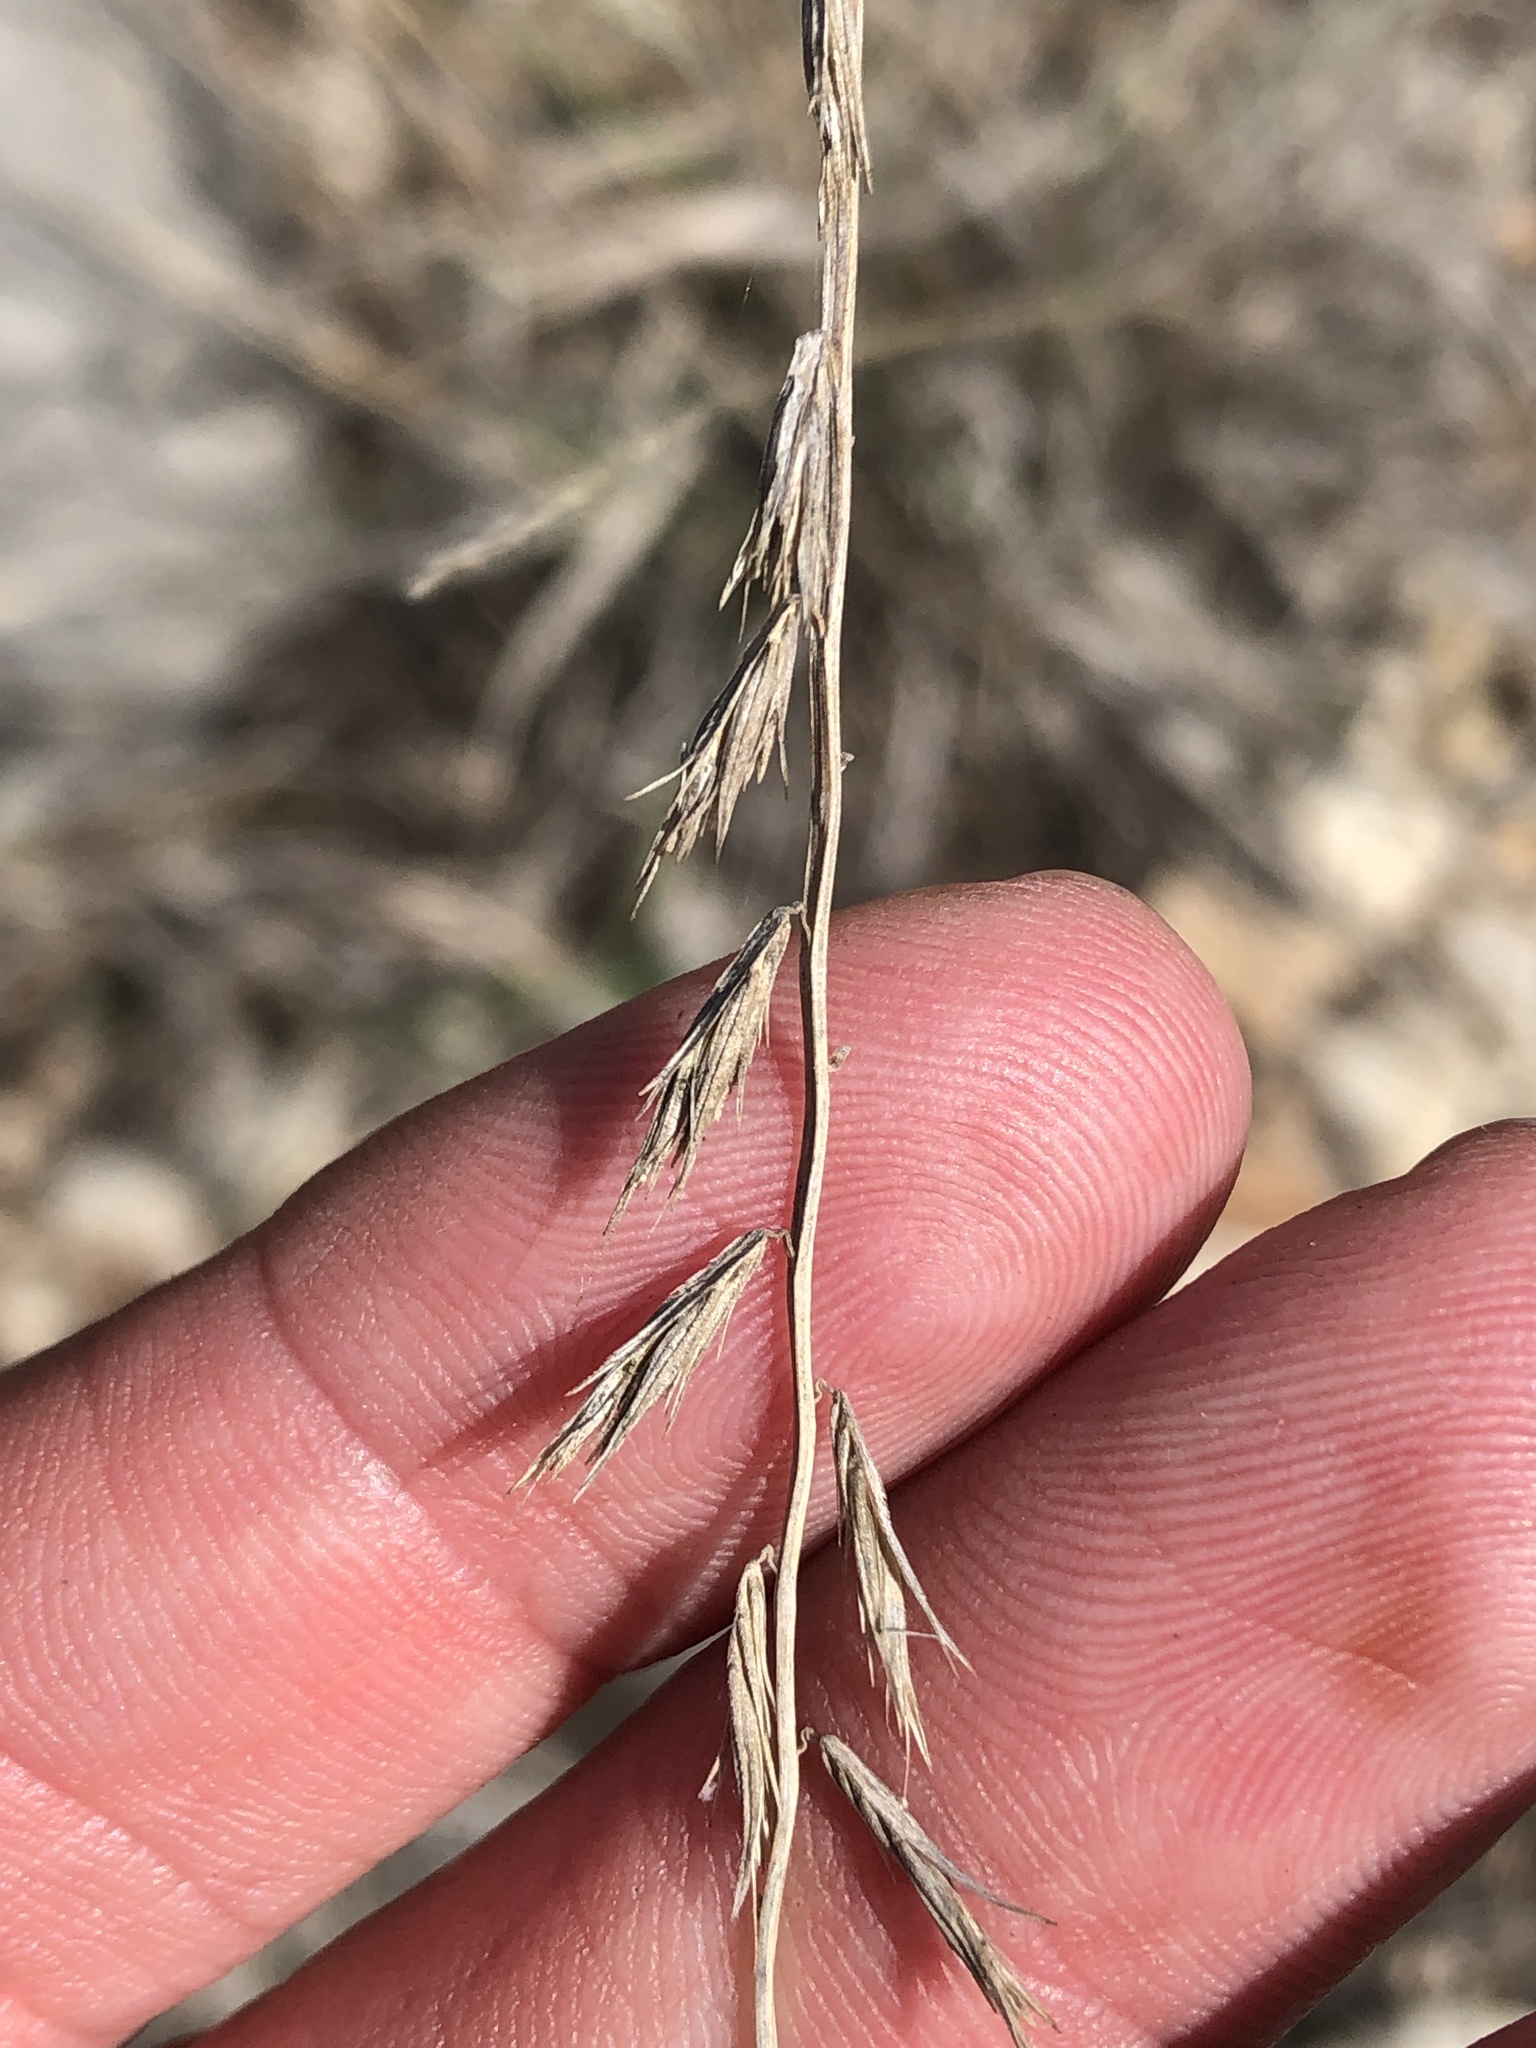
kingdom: Plantae
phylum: Tracheophyta
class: Liliopsida
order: Poales
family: Poaceae
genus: Bouteloua
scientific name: Bouteloua curtipendula
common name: Side-oats grama
